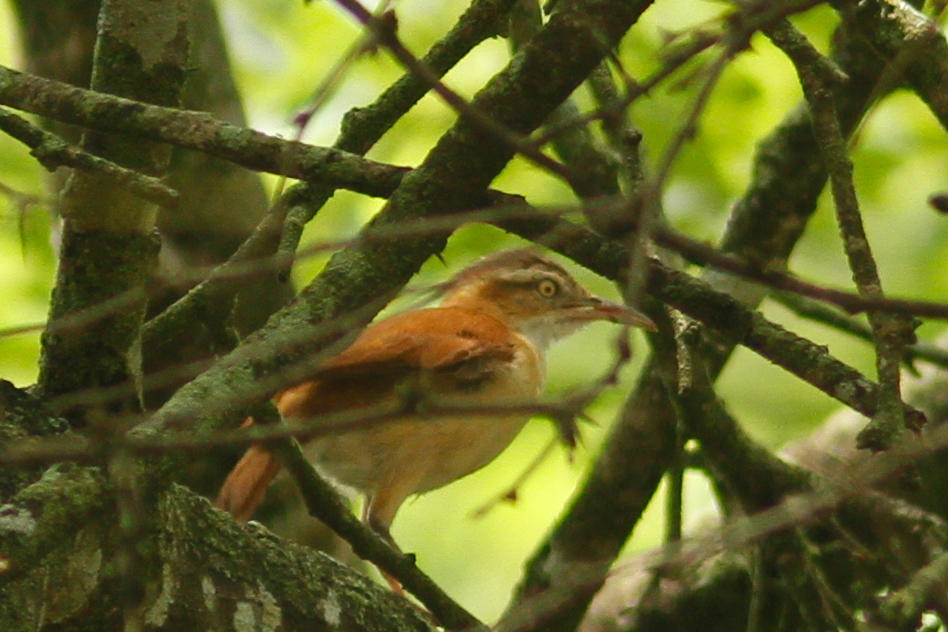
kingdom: Animalia
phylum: Chordata
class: Aves
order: Passeriformes
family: Furnariidae
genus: Furnarius
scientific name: Furnarius leucopus
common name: Pale-legged hornero
